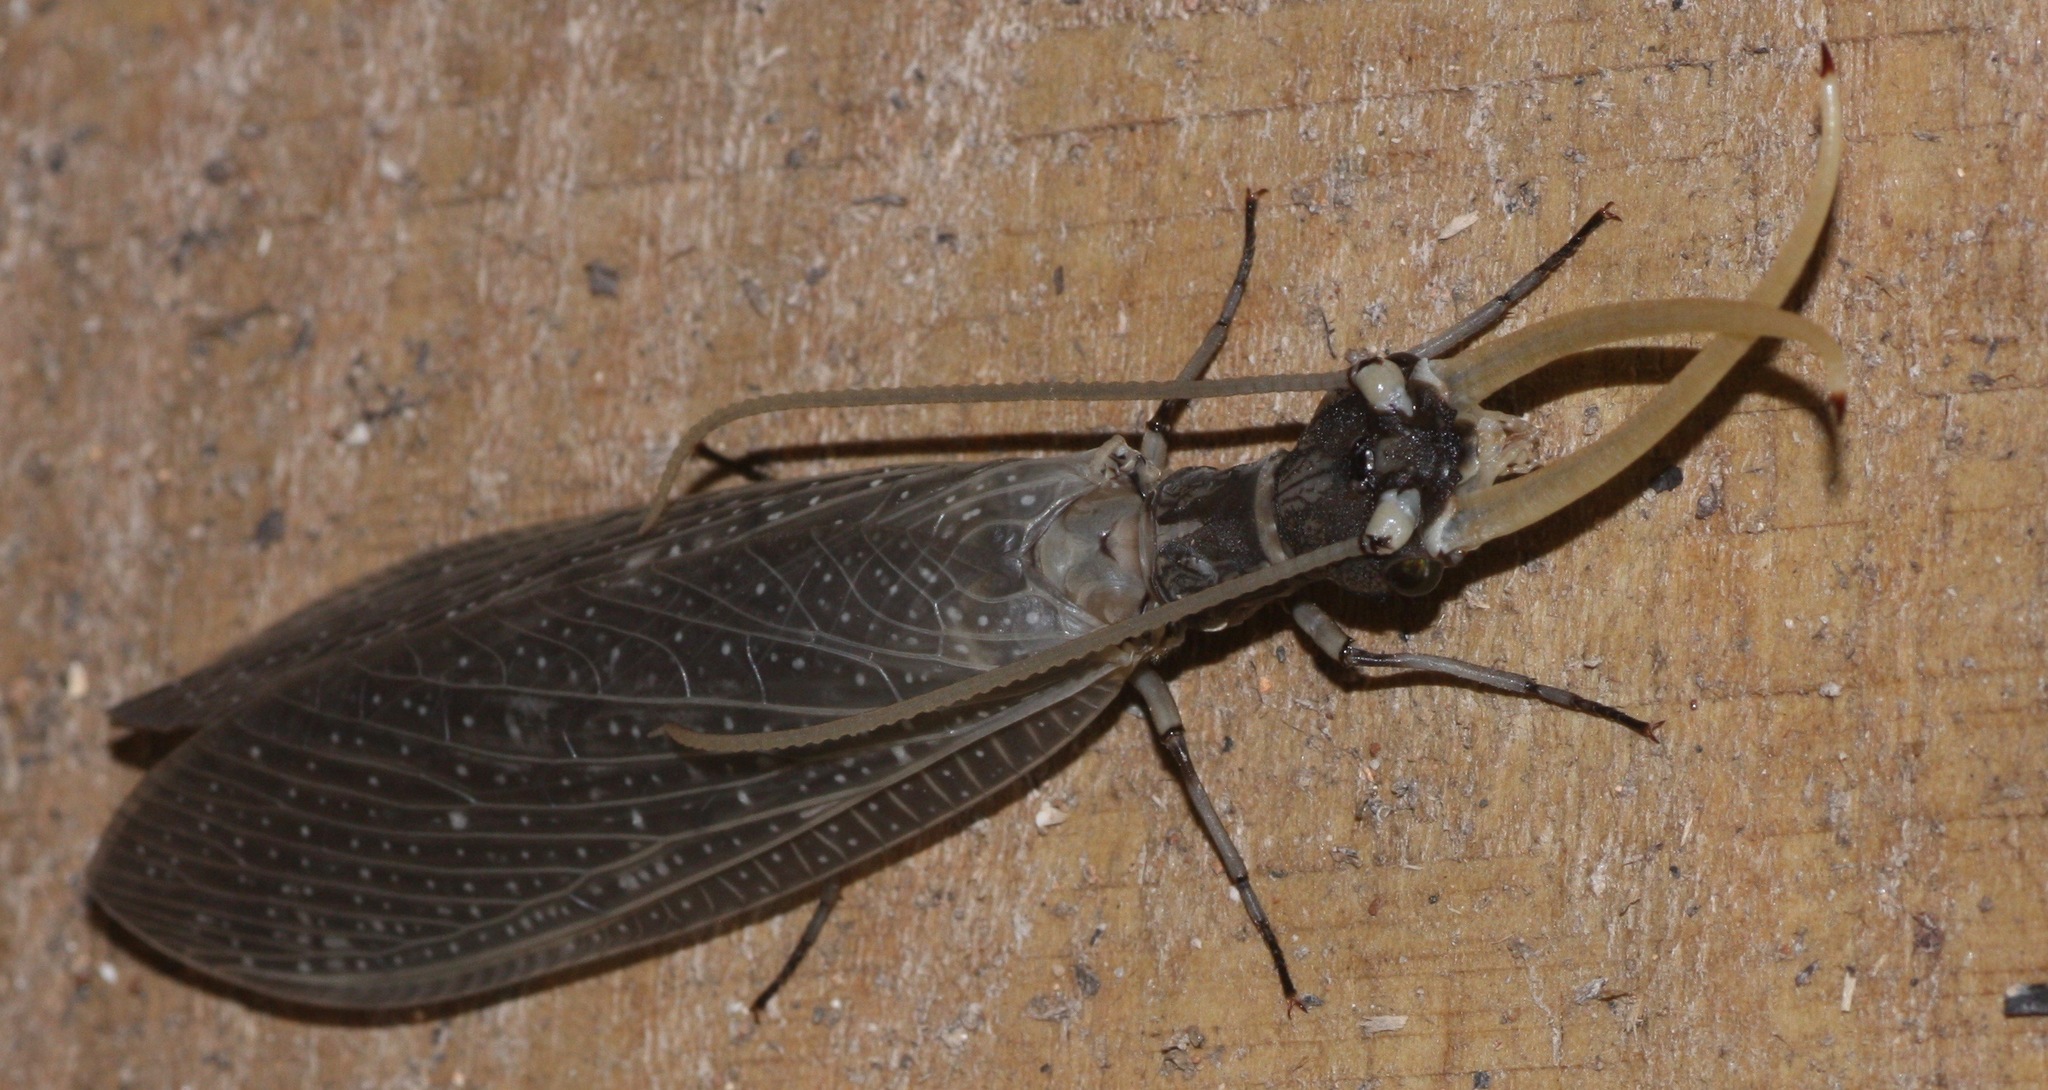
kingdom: Animalia
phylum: Arthropoda
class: Insecta
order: Megaloptera
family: Corydalidae
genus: Corydalus
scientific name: Corydalus cornutus
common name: Dobsonfly
